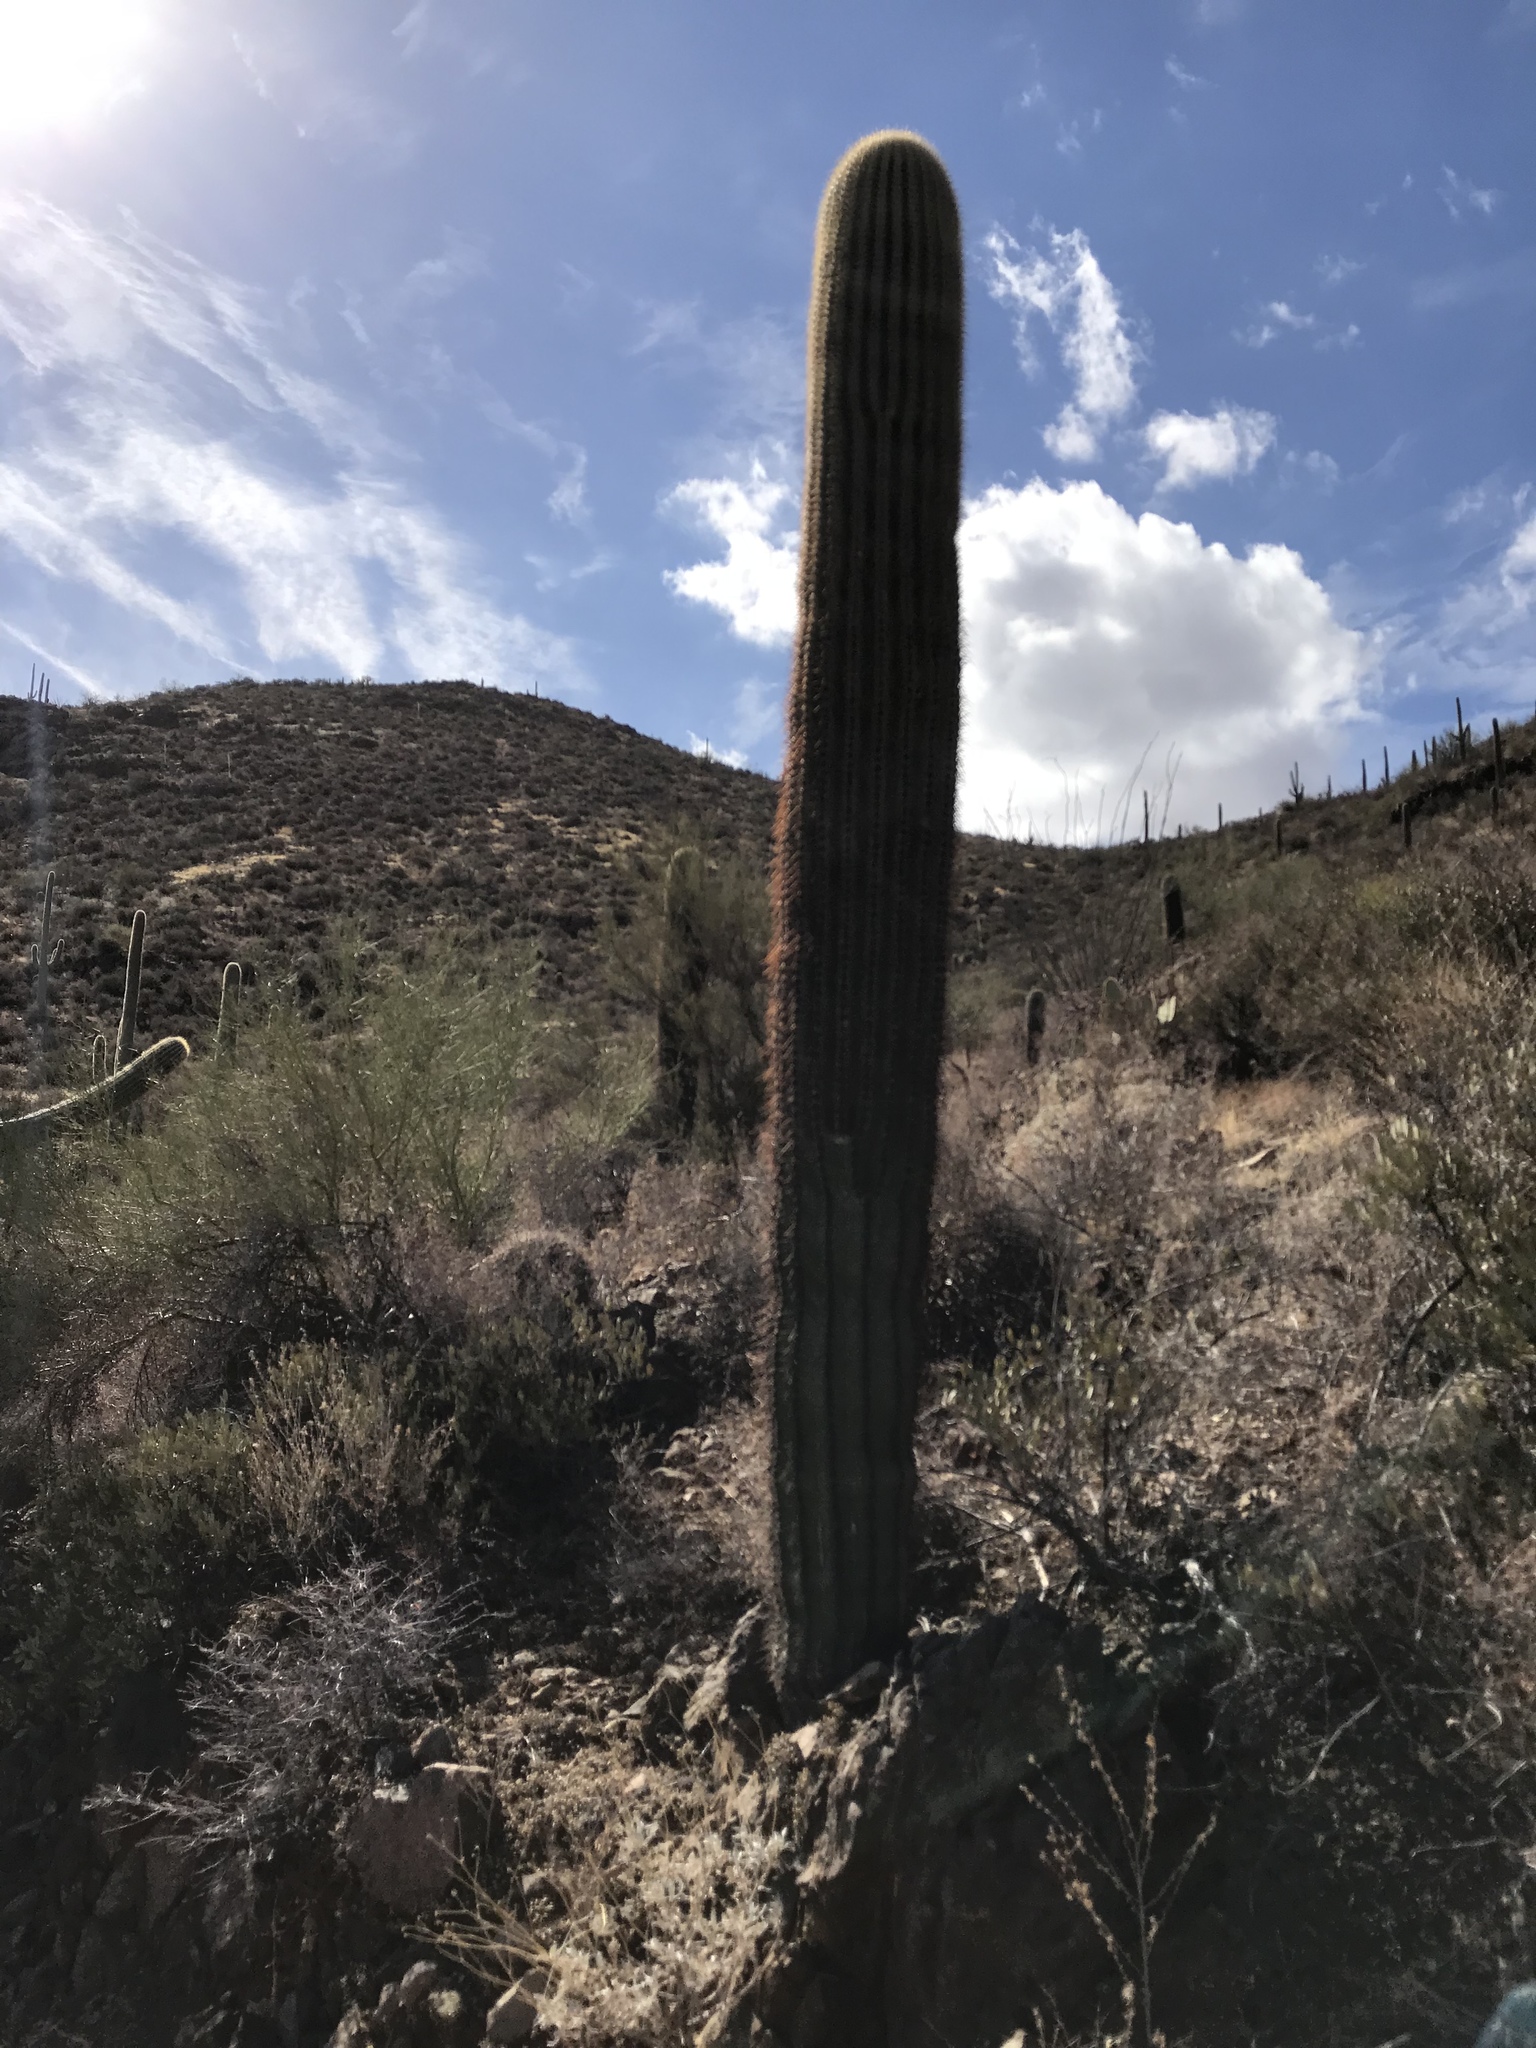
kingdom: Plantae
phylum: Tracheophyta
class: Magnoliopsida
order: Caryophyllales
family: Cactaceae
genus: Carnegiea
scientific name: Carnegiea gigantea
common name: Saguaro
